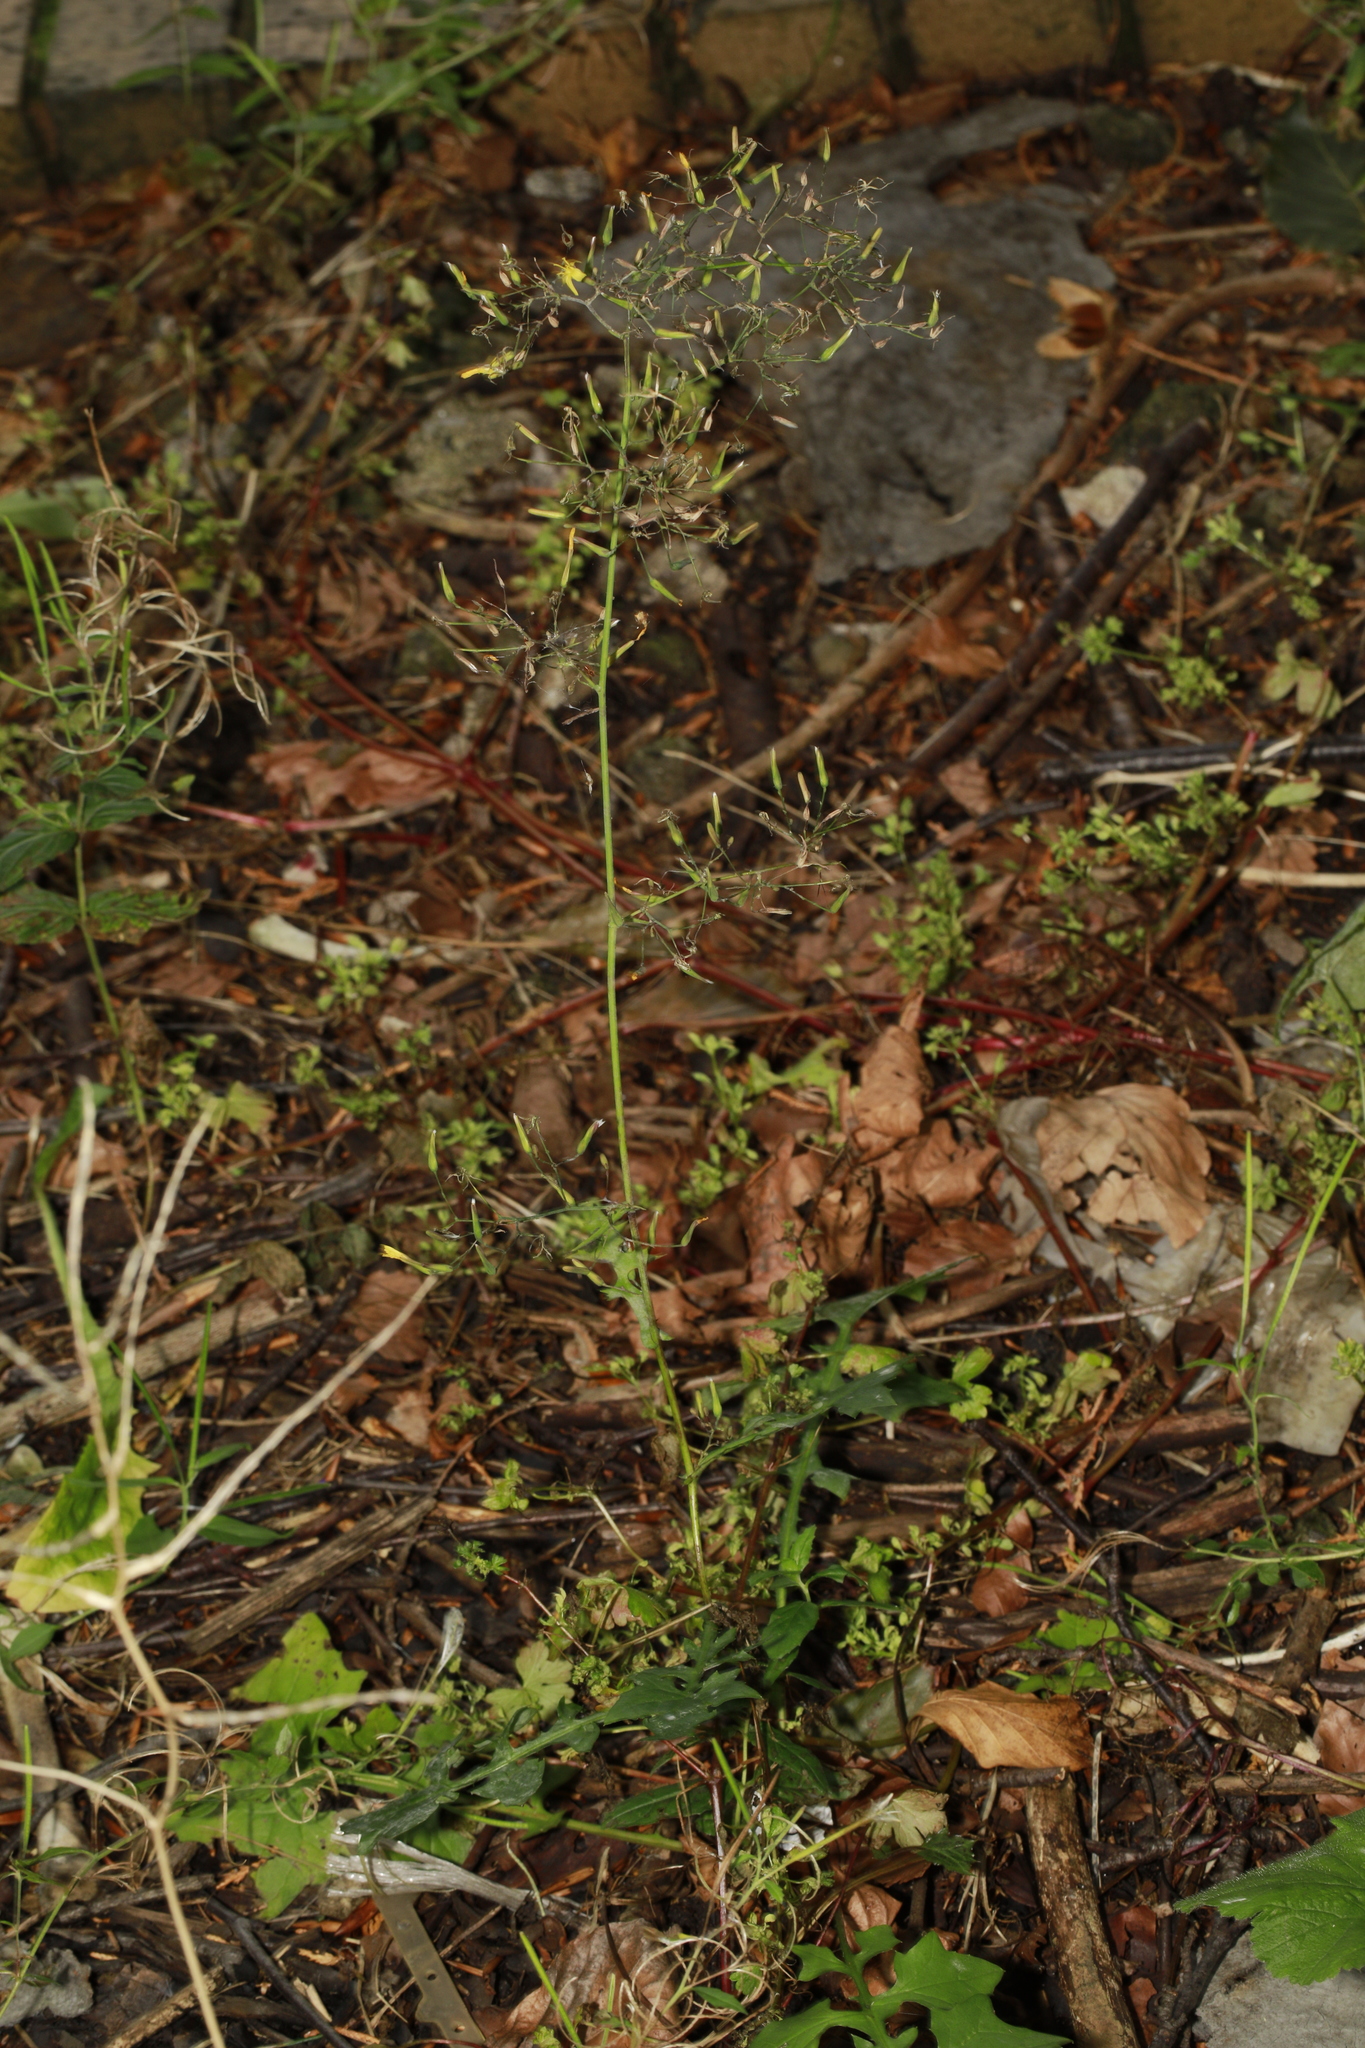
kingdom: Plantae
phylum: Tracheophyta
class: Magnoliopsida
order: Asterales
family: Asteraceae
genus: Mycelis
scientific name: Mycelis muralis
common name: Wall lettuce
